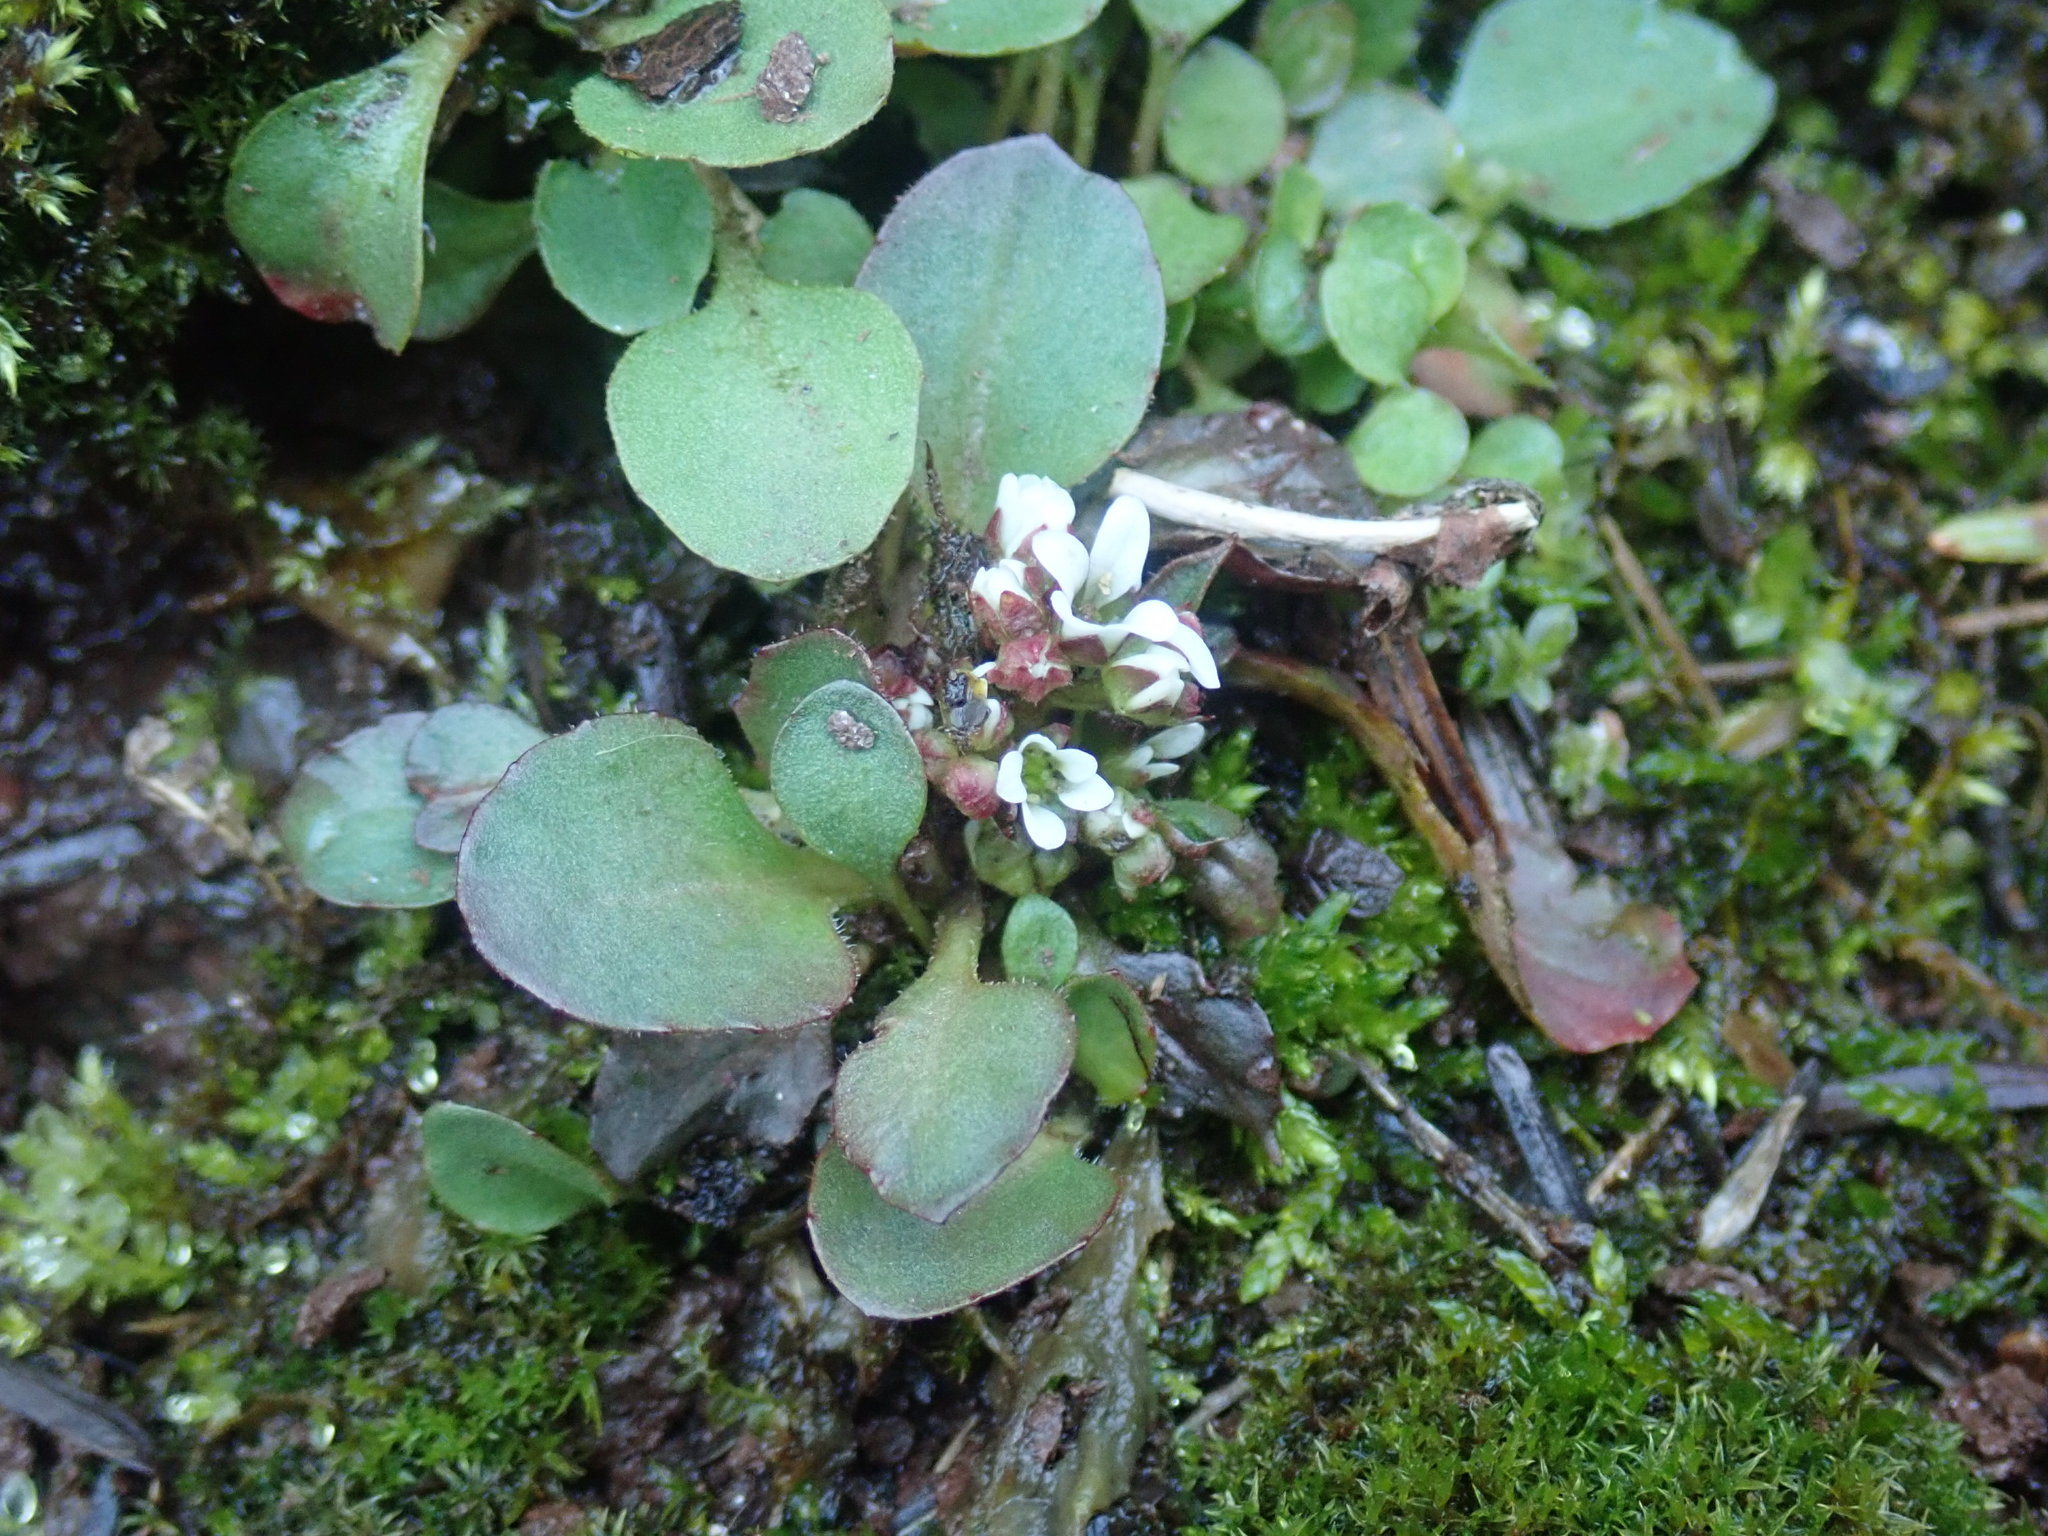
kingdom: Plantae
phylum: Tracheophyta
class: Magnoliopsida
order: Saxifragales
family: Saxifragaceae
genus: Micranthes
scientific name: Micranthes virginiensis
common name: Early saxifrage
